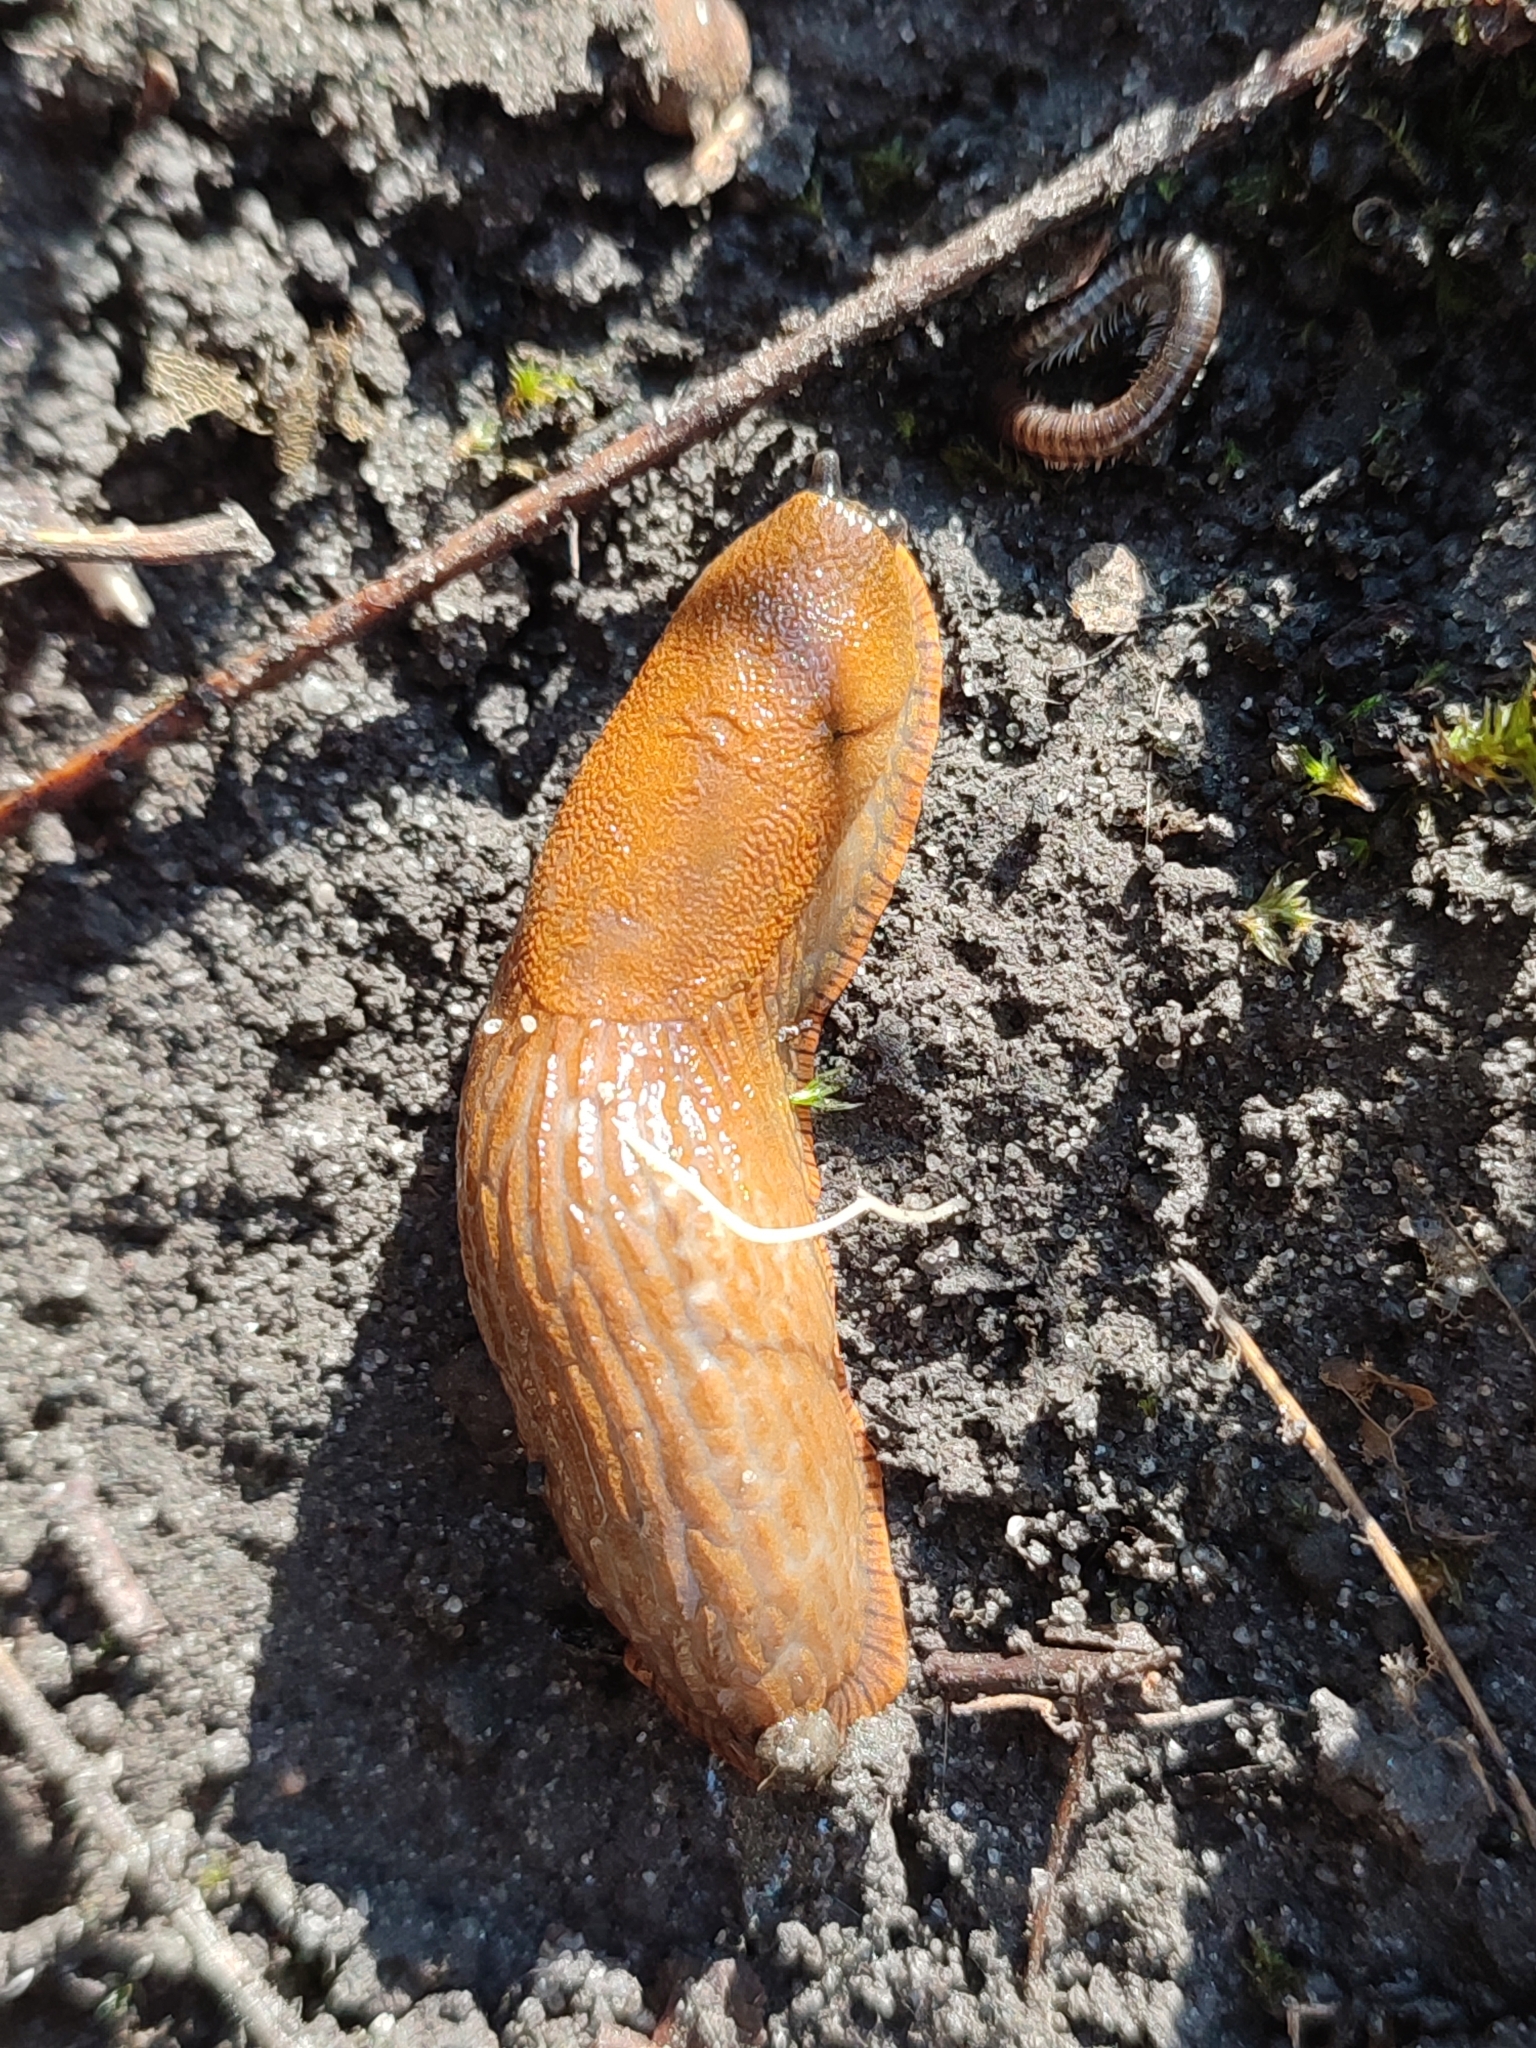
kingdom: Animalia
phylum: Mollusca
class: Gastropoda
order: Stylommatophora
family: Arionidae
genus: Arion
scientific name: Arion vulgaris
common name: Lusitanian slug
